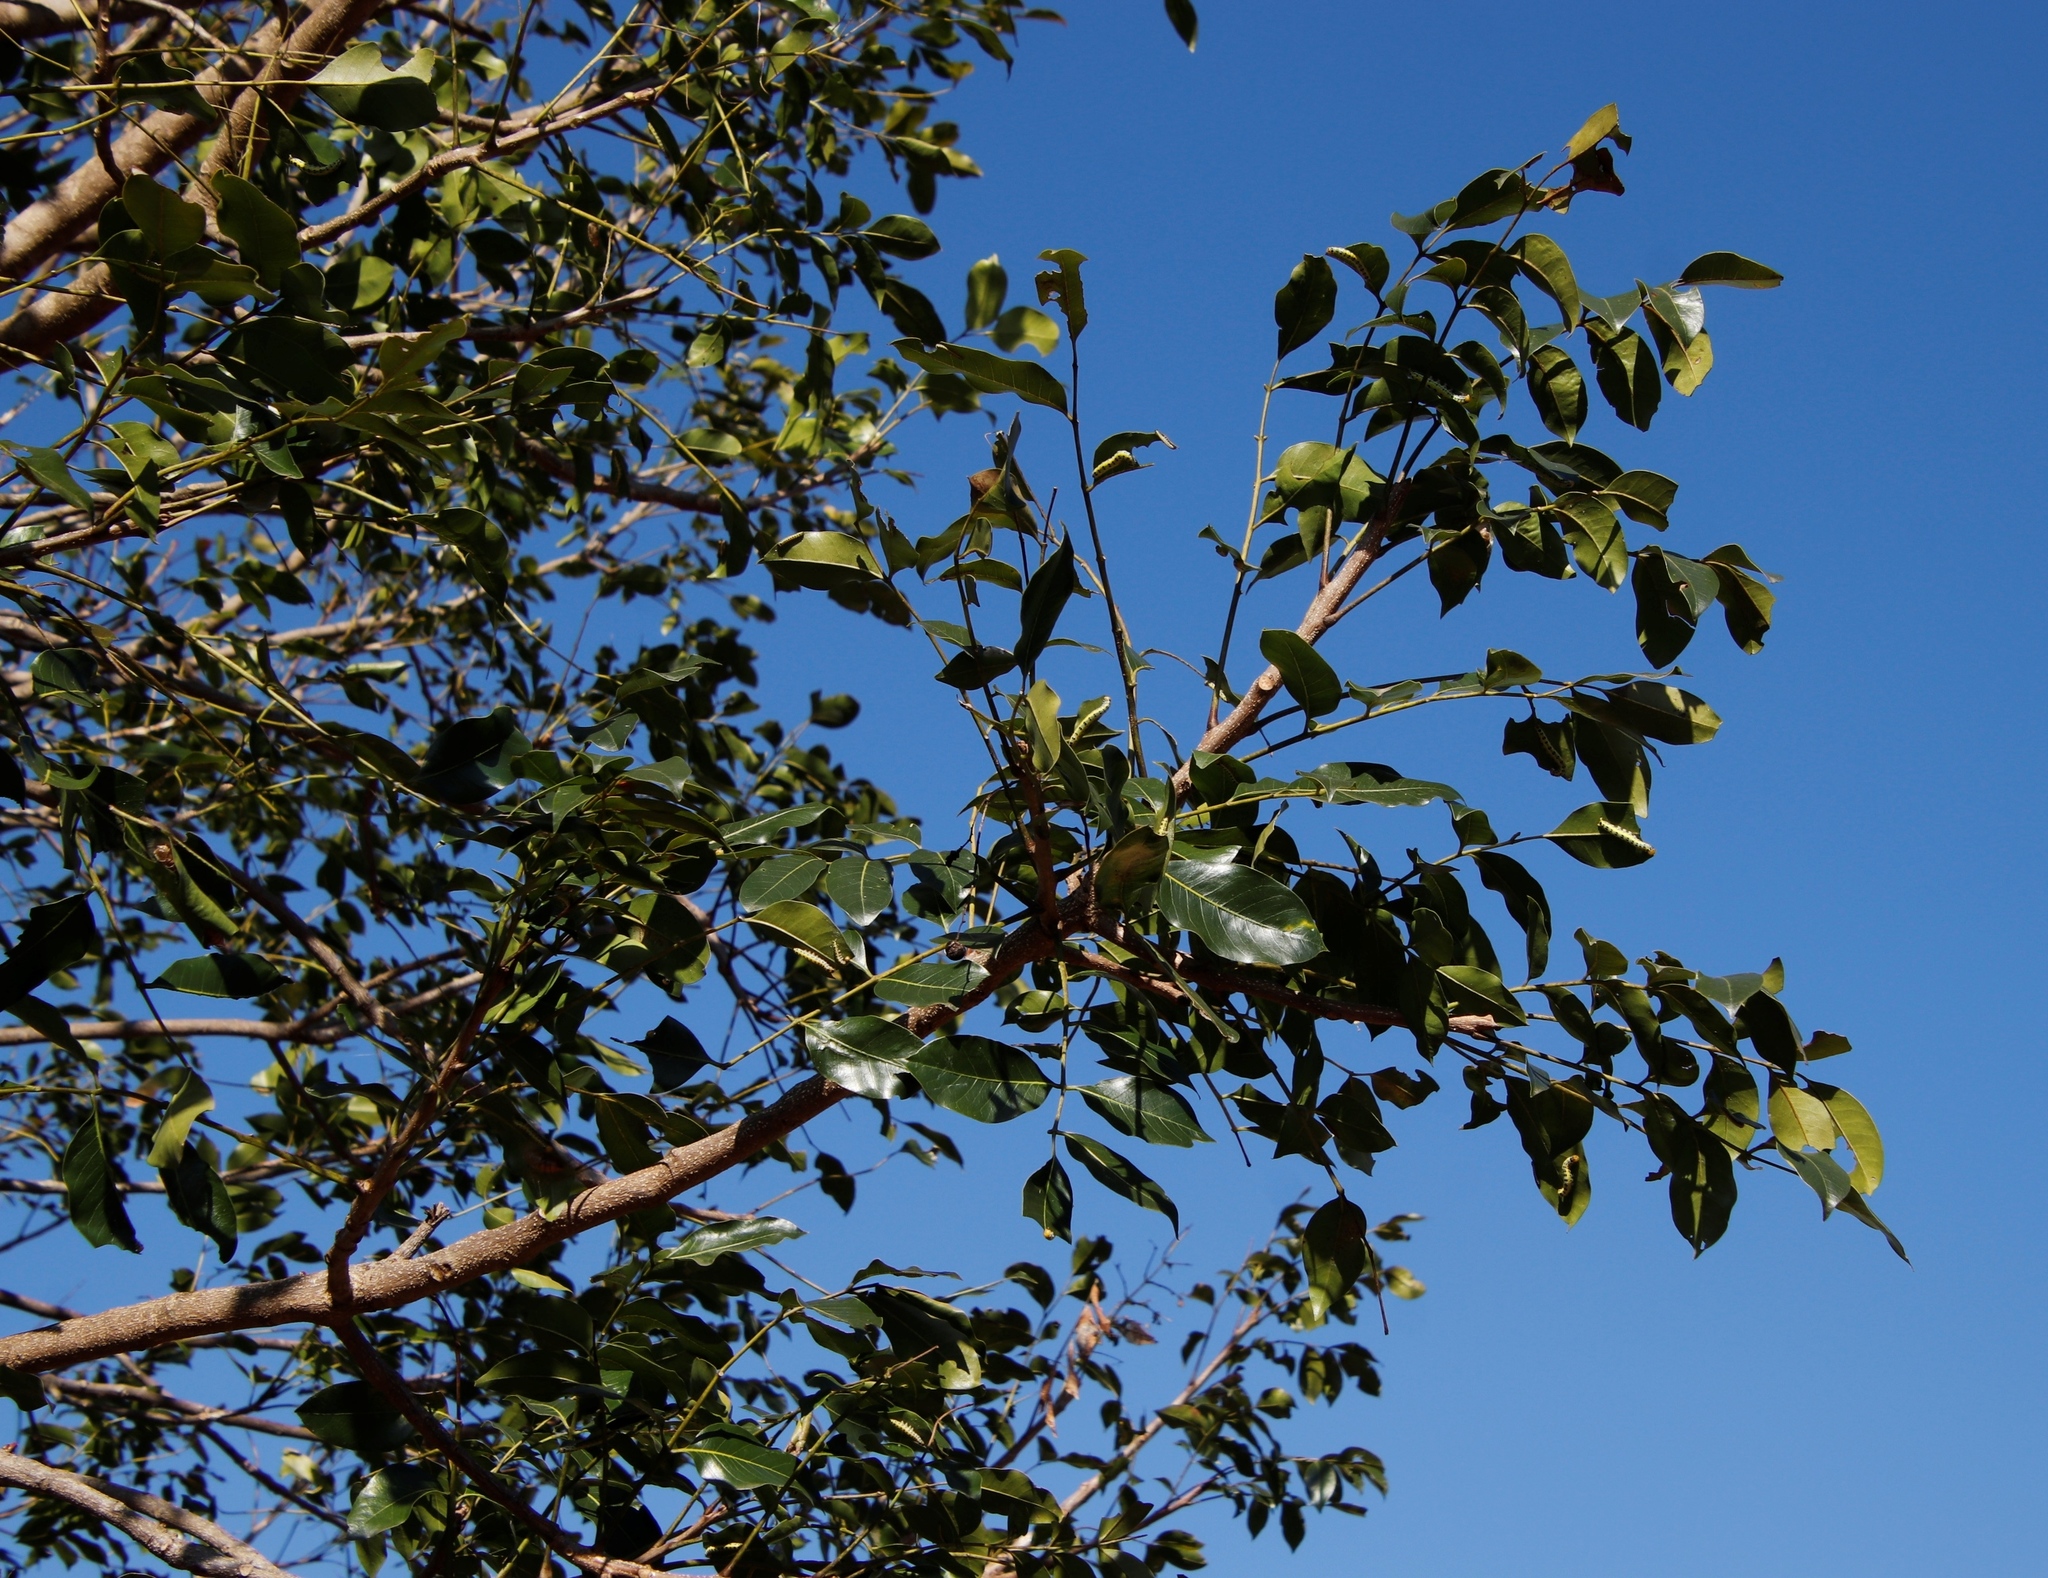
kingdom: Plantae
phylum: Tracheophyta
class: Magnoliopsida
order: Sapindales
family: Meliaceae
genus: Ekebergia
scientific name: Ekebergia capensis
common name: Cape-ash
